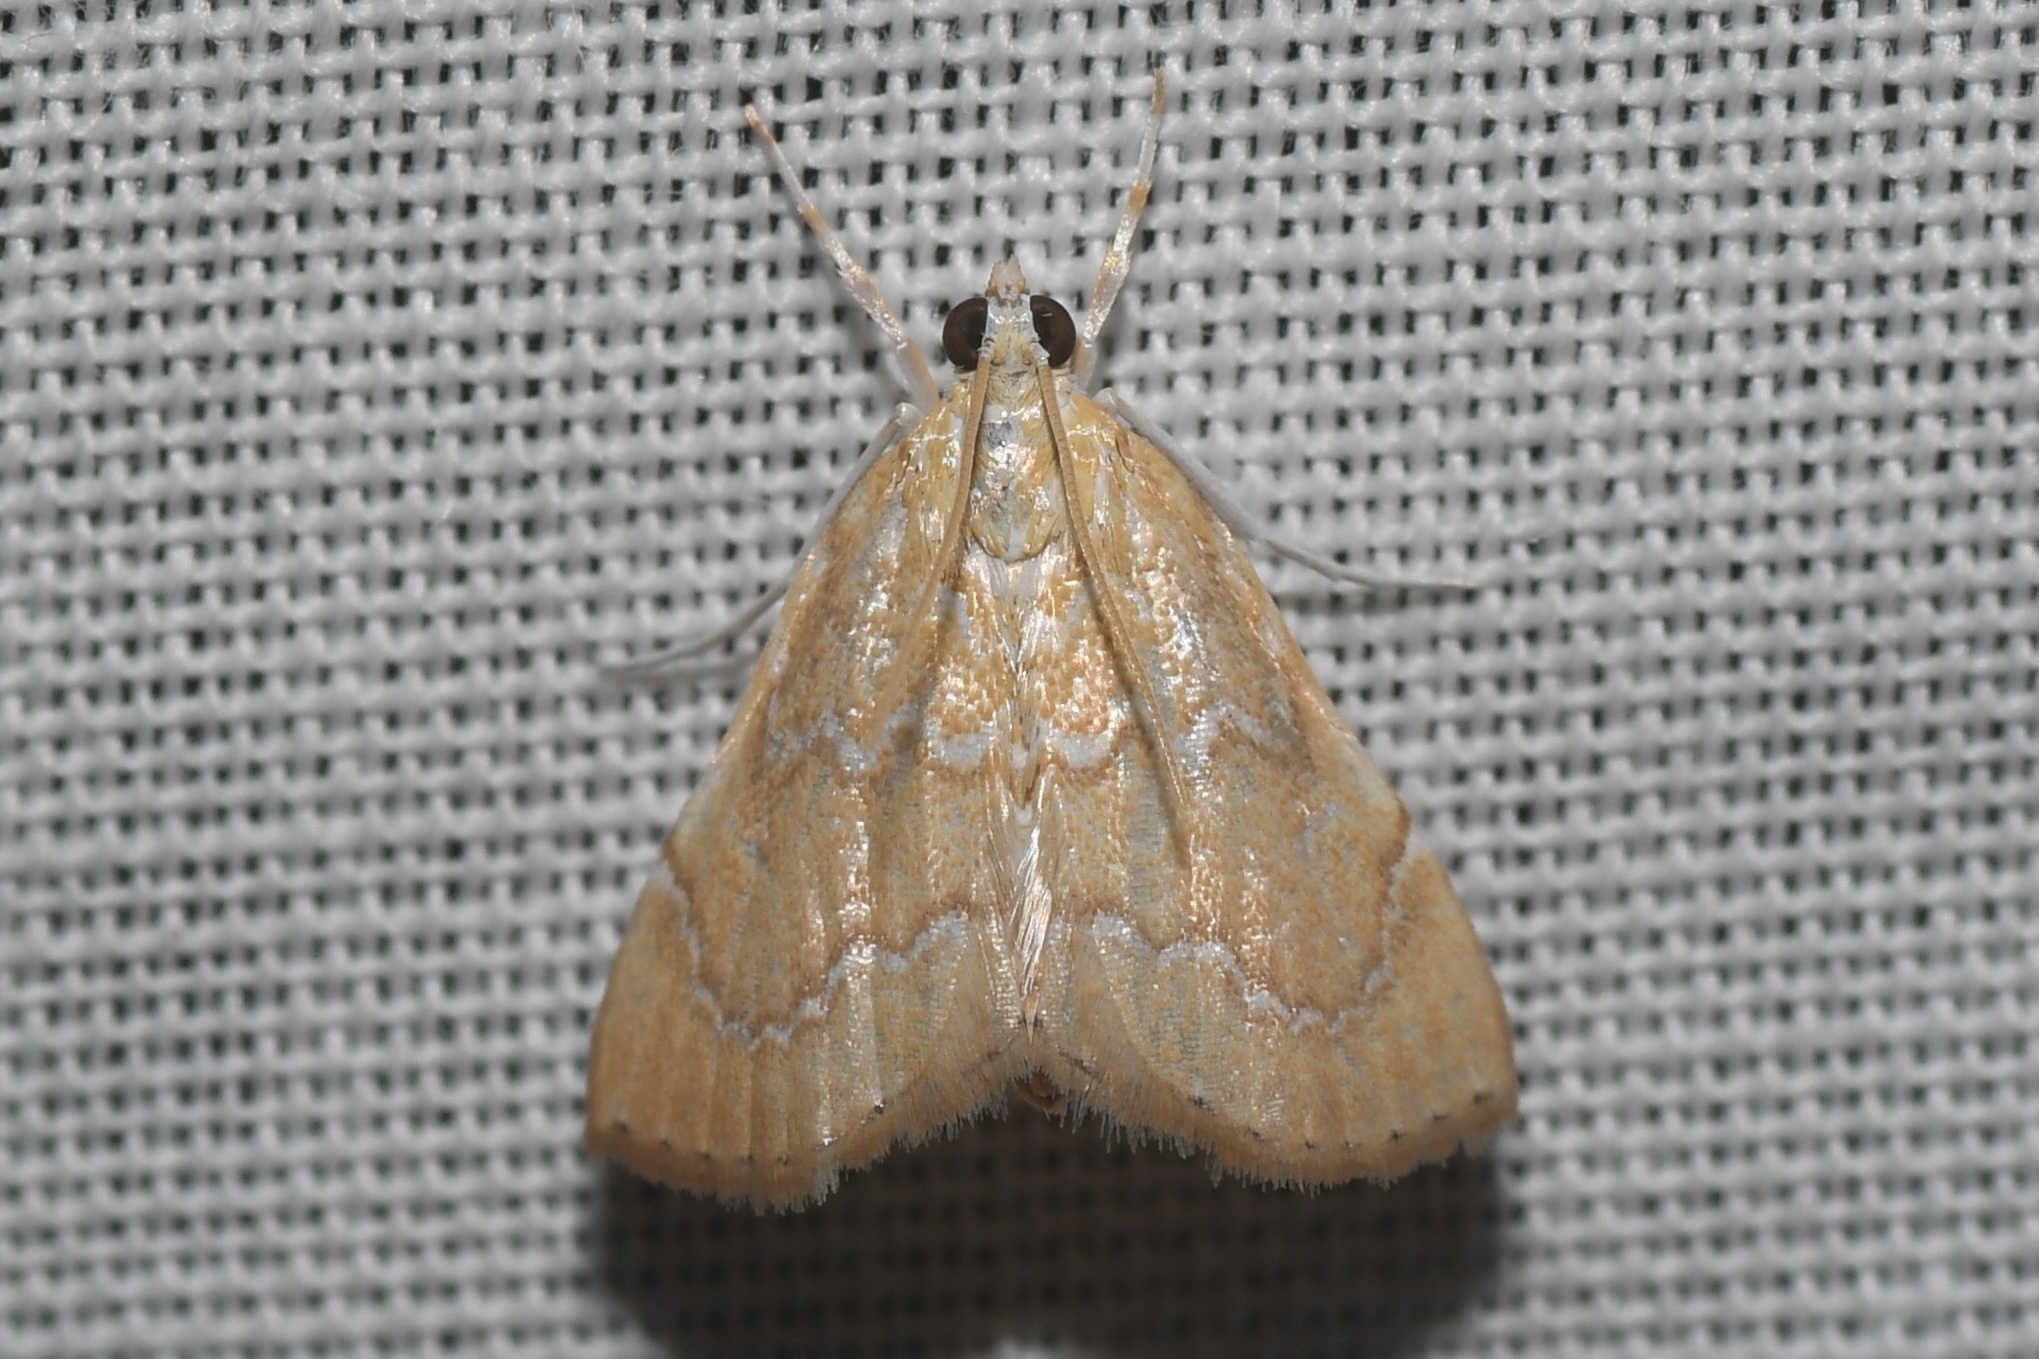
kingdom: Animalia
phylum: Arthropoda
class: Insecta
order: Lepidoptera
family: Crambidae
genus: Glaphyria
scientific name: Glaphyria sesquistrialis
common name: White-roped glaphyria
